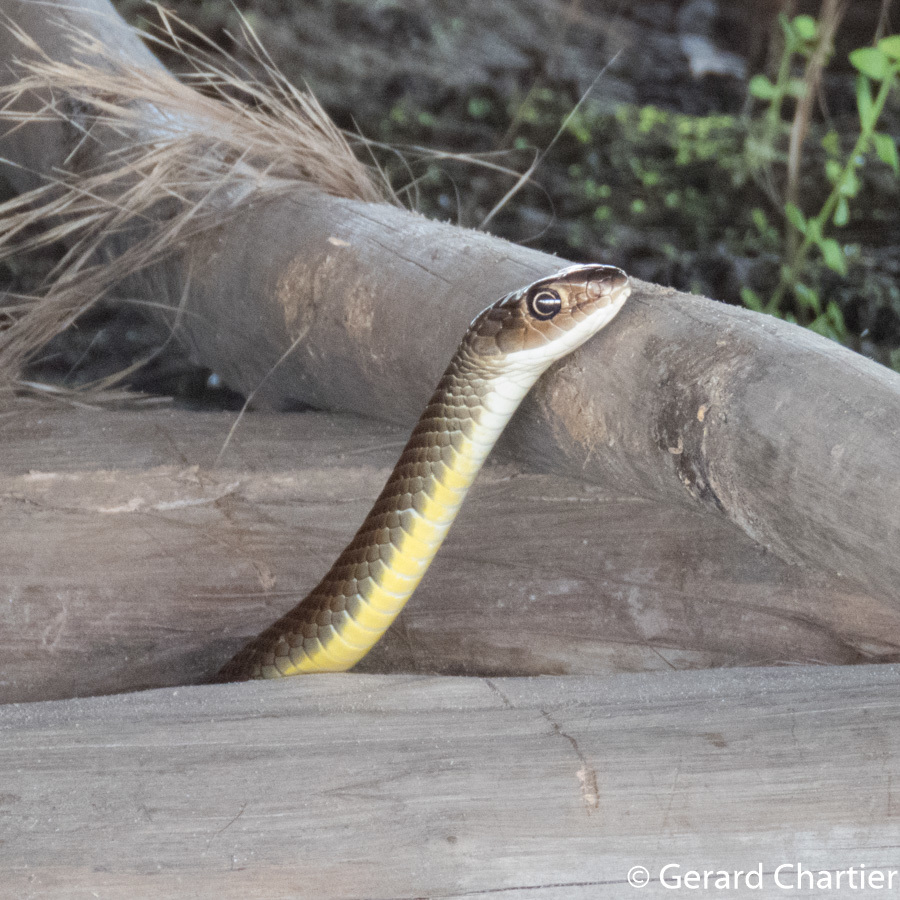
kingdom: Animalia
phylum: Chordata
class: Squamata
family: Colubridae
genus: Ptyas
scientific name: Ptyas korros
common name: Indo-chinese rat snake
